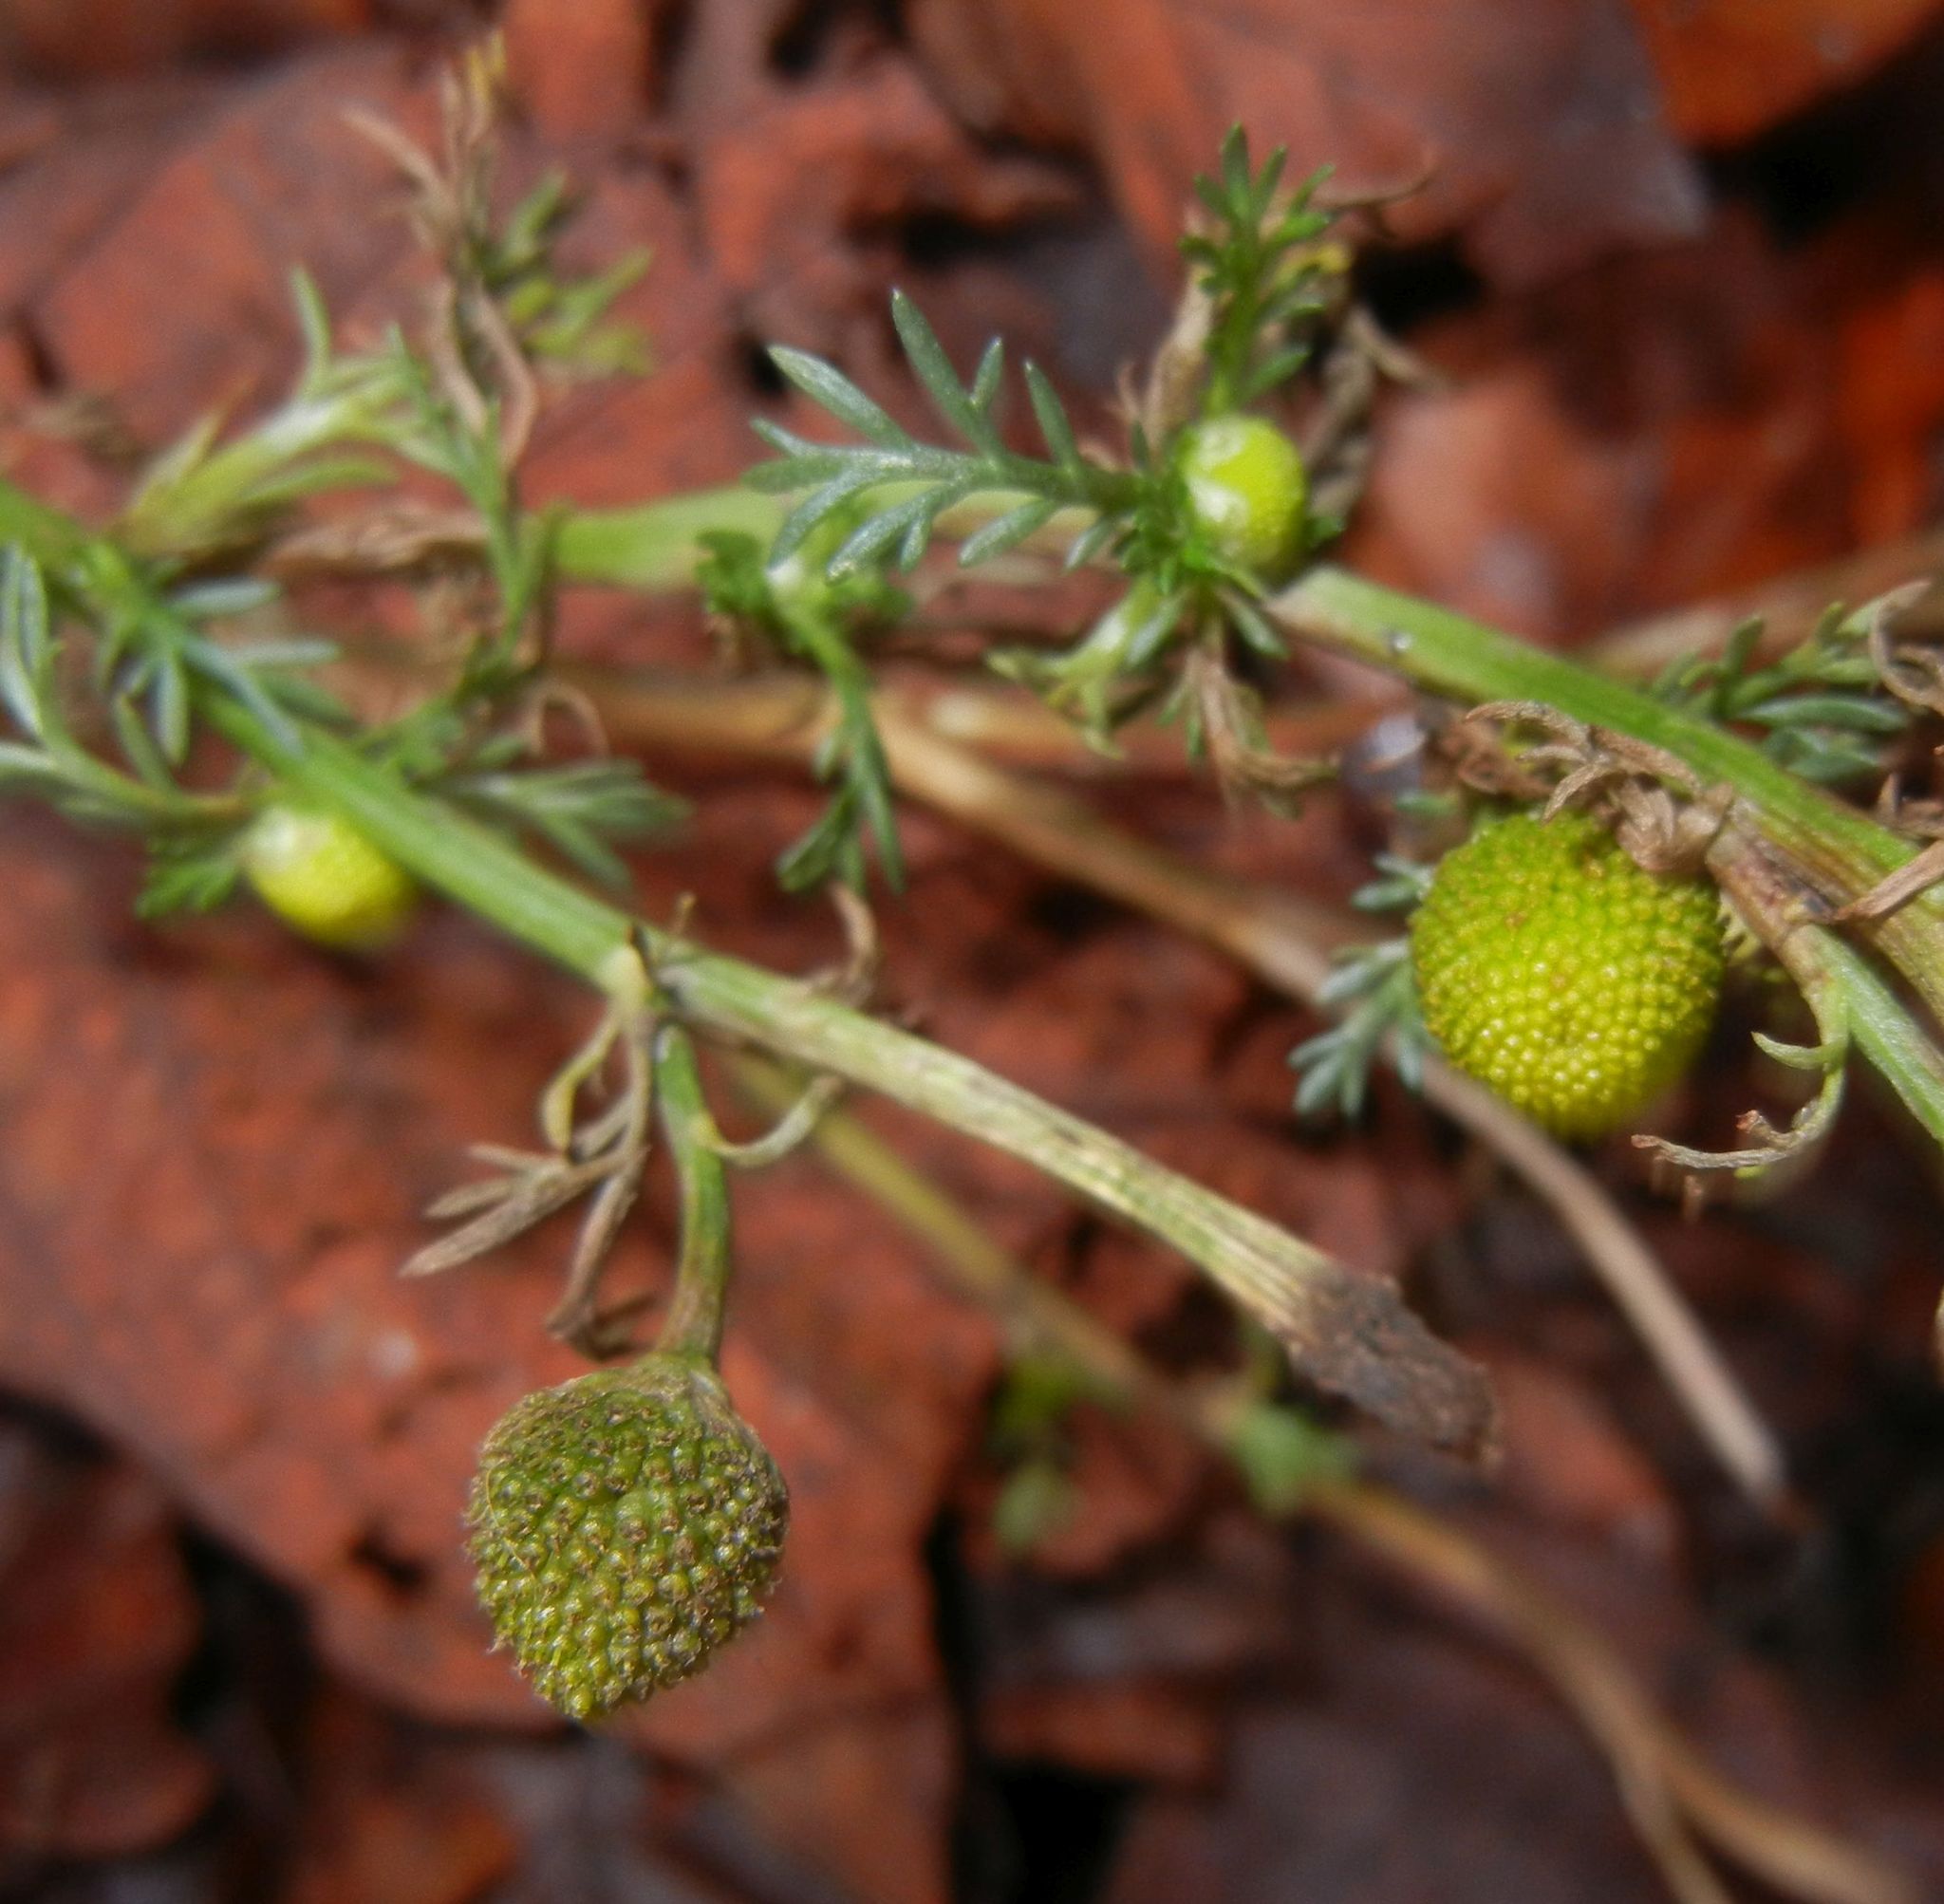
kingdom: Plantae
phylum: Tracheophyta
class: Magnoliopsida
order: Asterales
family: Asteraceae
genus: Matricaria
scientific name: Matricaria discoidea
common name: Disc mayweed
